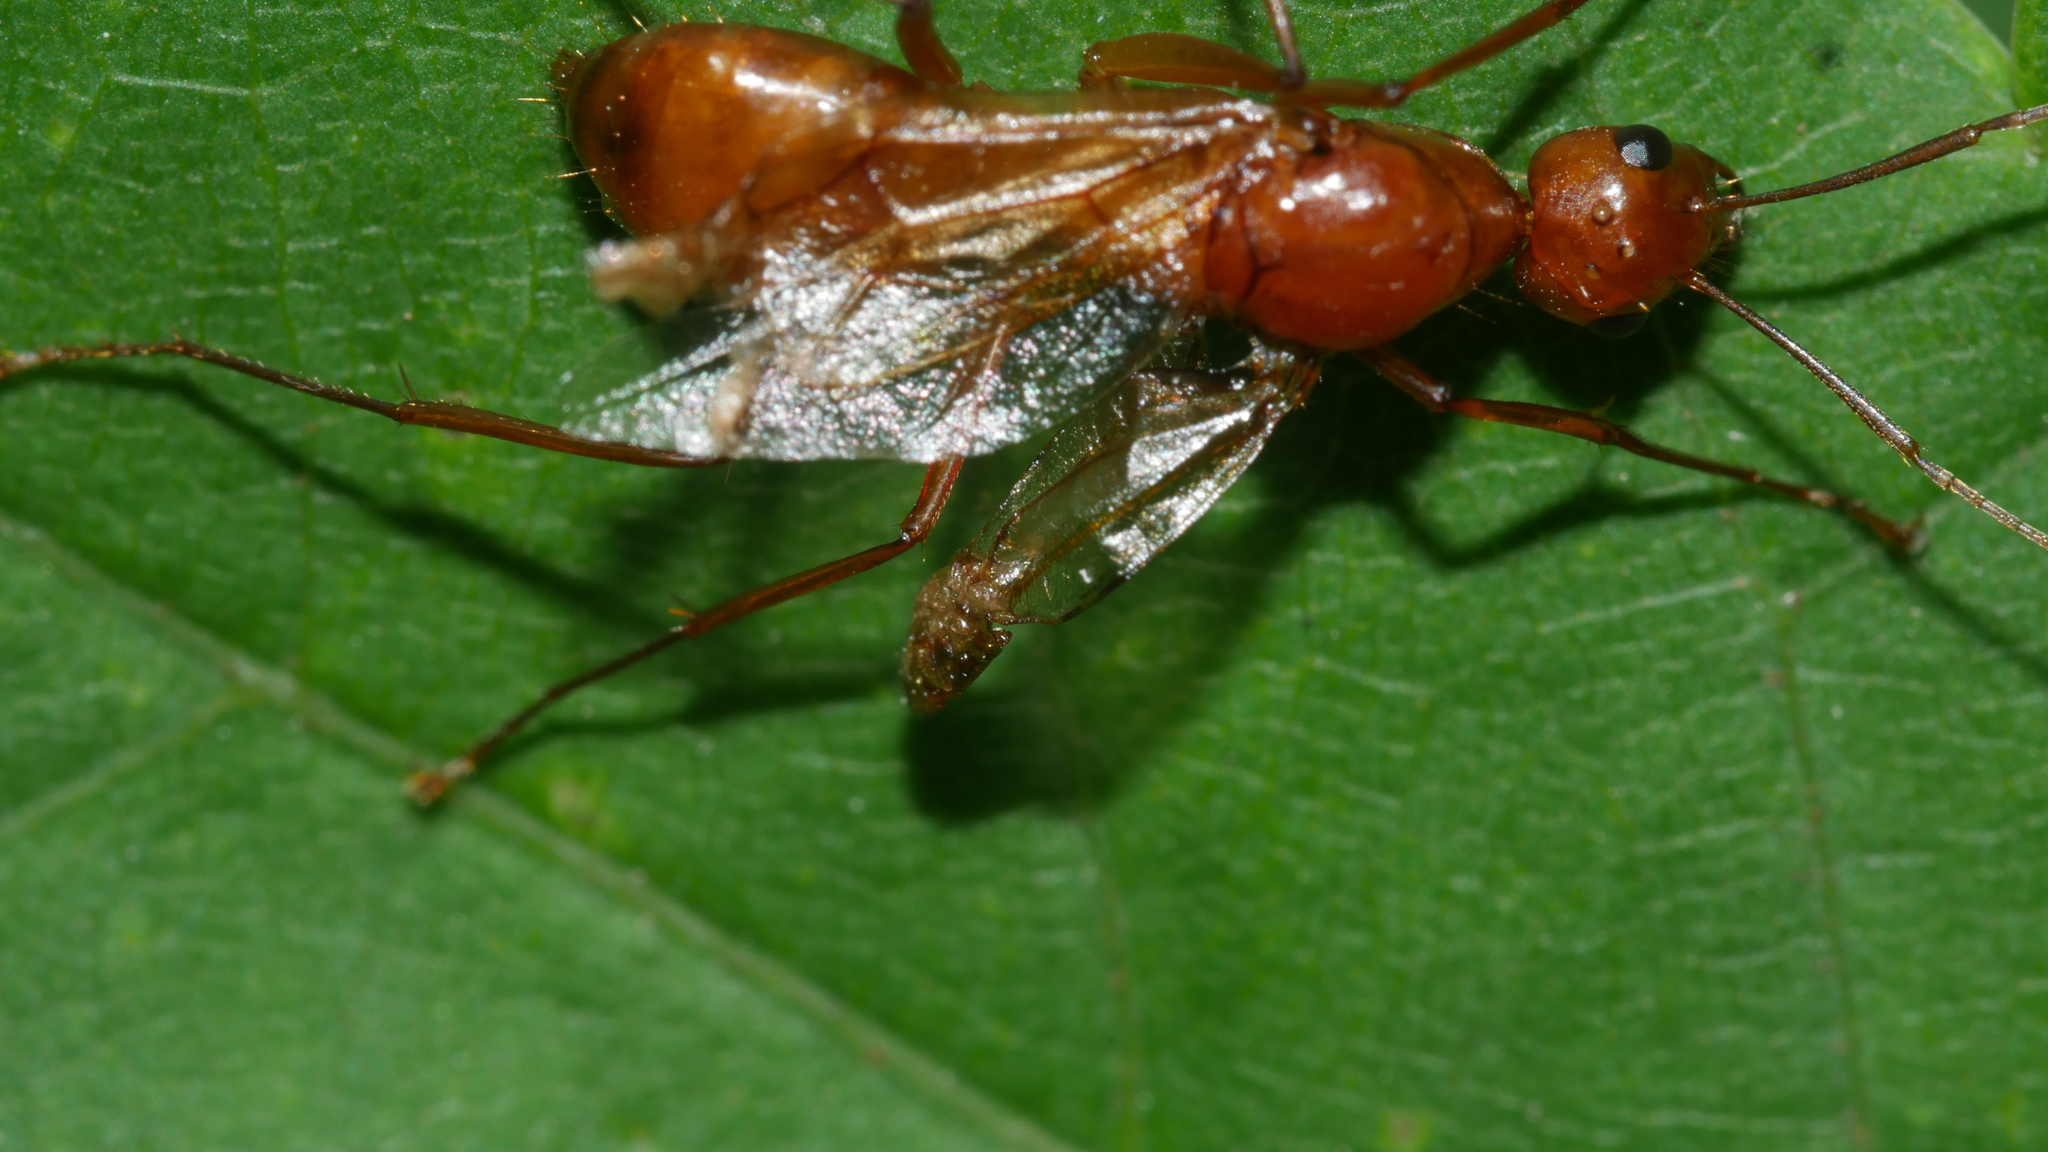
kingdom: Animalia
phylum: Arthropoda
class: Insecta
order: Hymenoptera
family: Formicidae
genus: Camponotus
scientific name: Camponotus castaneus
